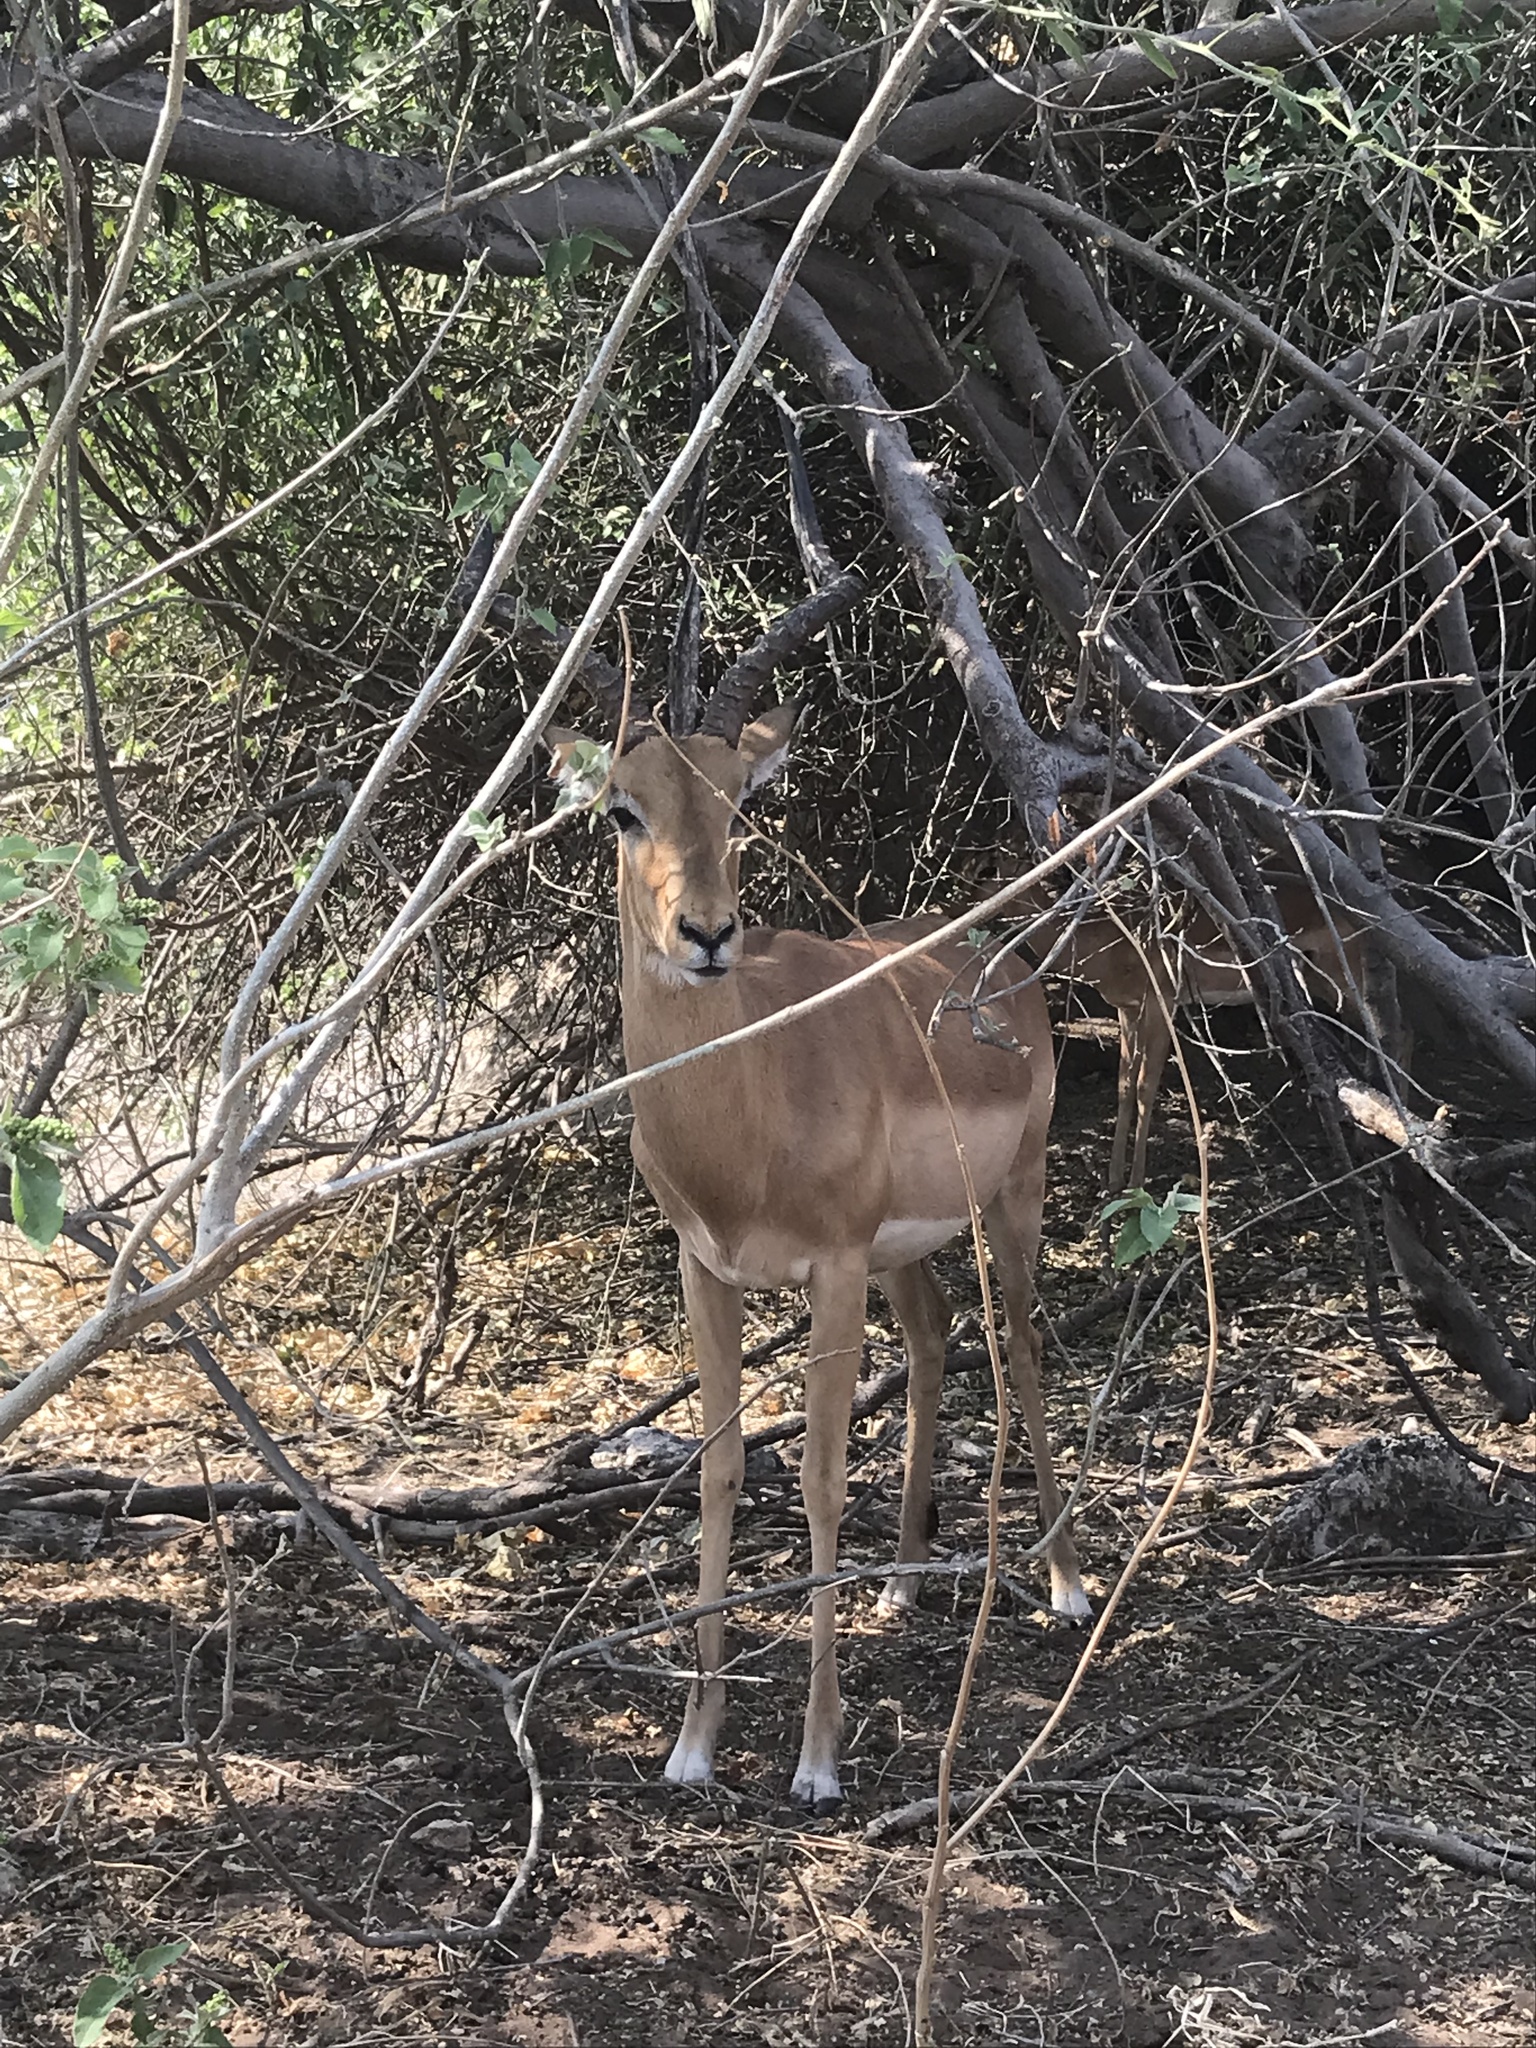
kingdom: Animalia
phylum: Chordata
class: Mammalia
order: Artiodactyla
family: Bovidae
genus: Aepyceros
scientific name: Aepyceros melampus
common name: Impala
